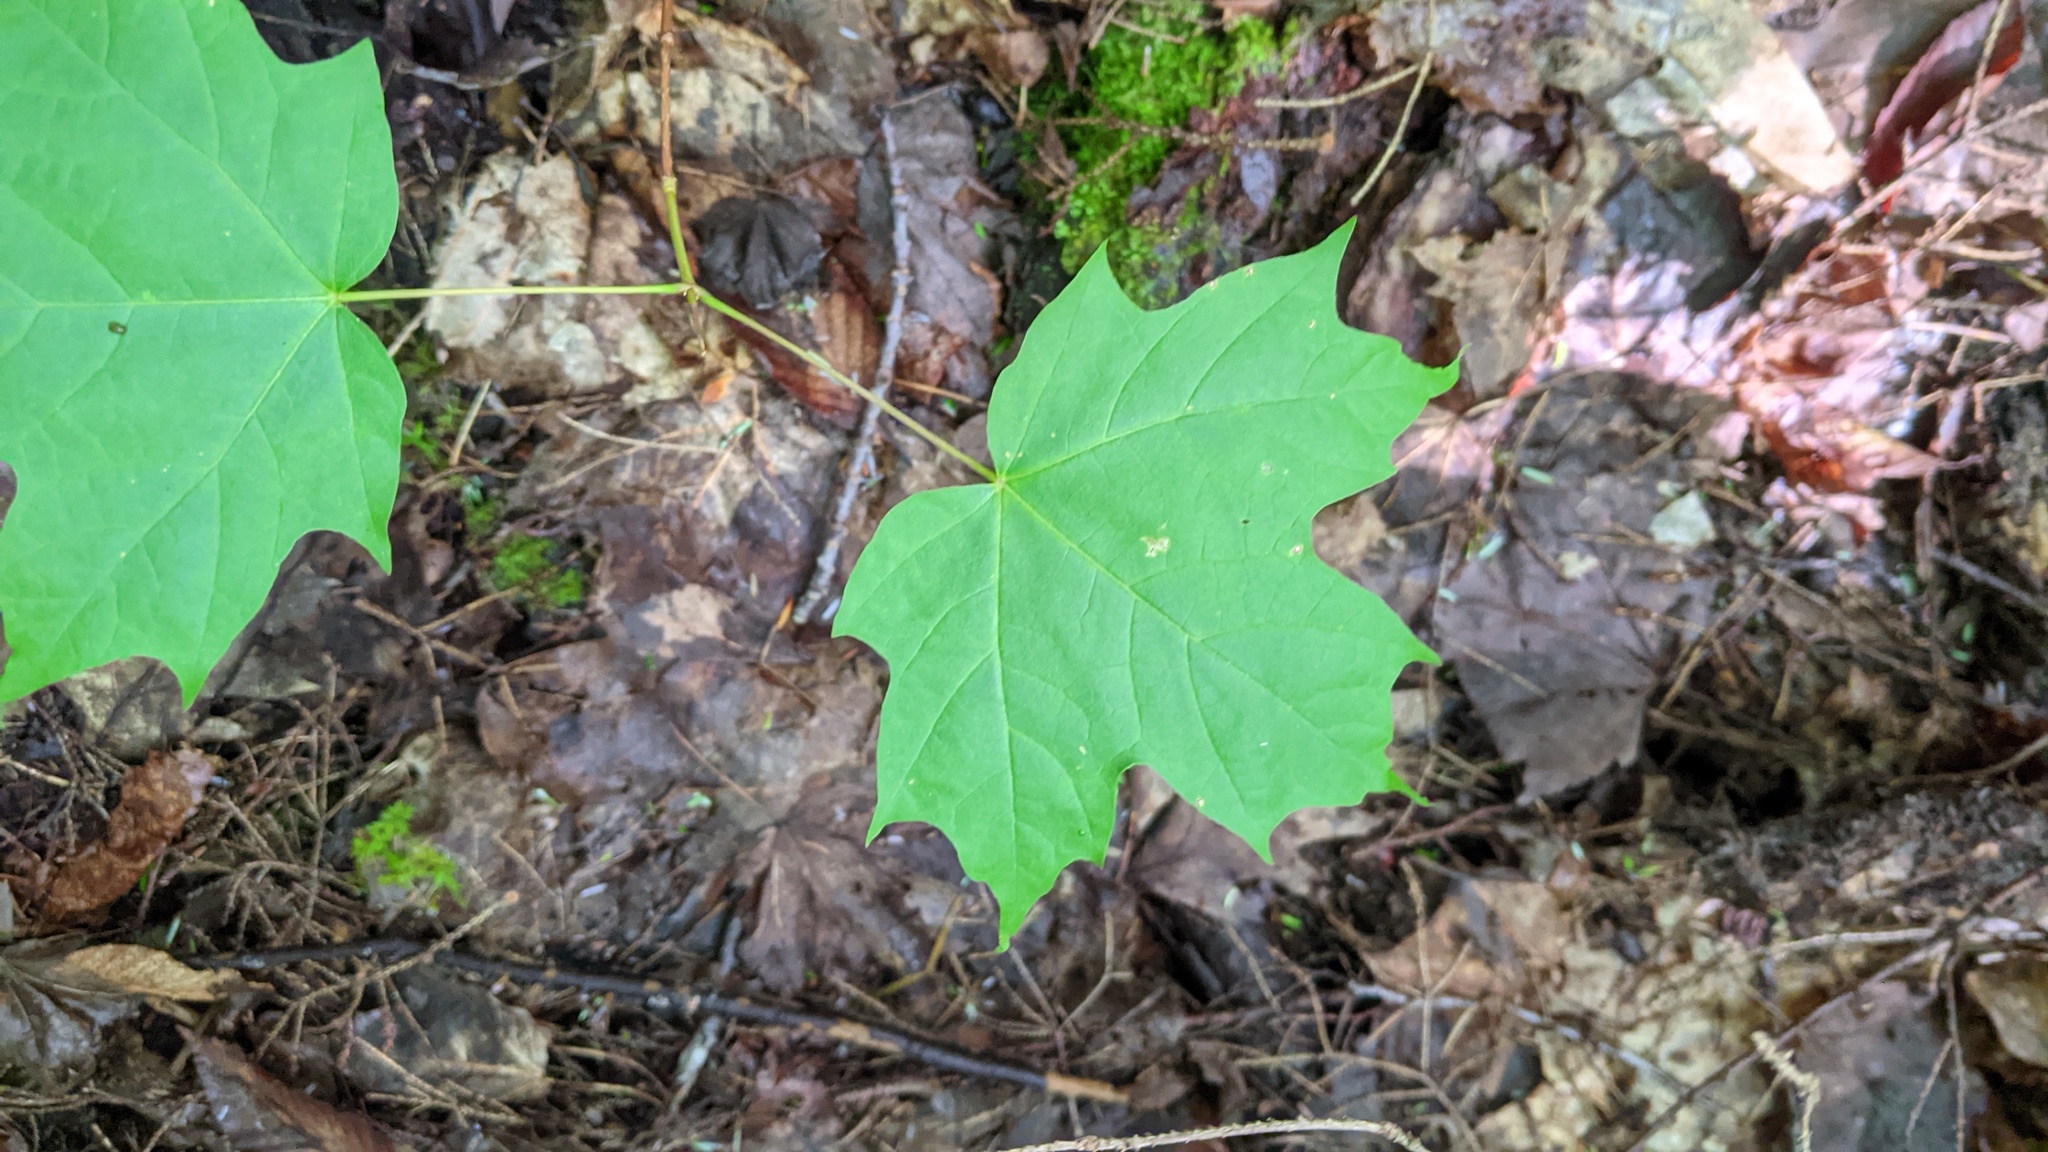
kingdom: Plantae
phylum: Tracheophyta
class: Magnoliopsida
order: Sapindales
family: Sapindaceae
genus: Acer
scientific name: Acer saccharum
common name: Sugar maple
